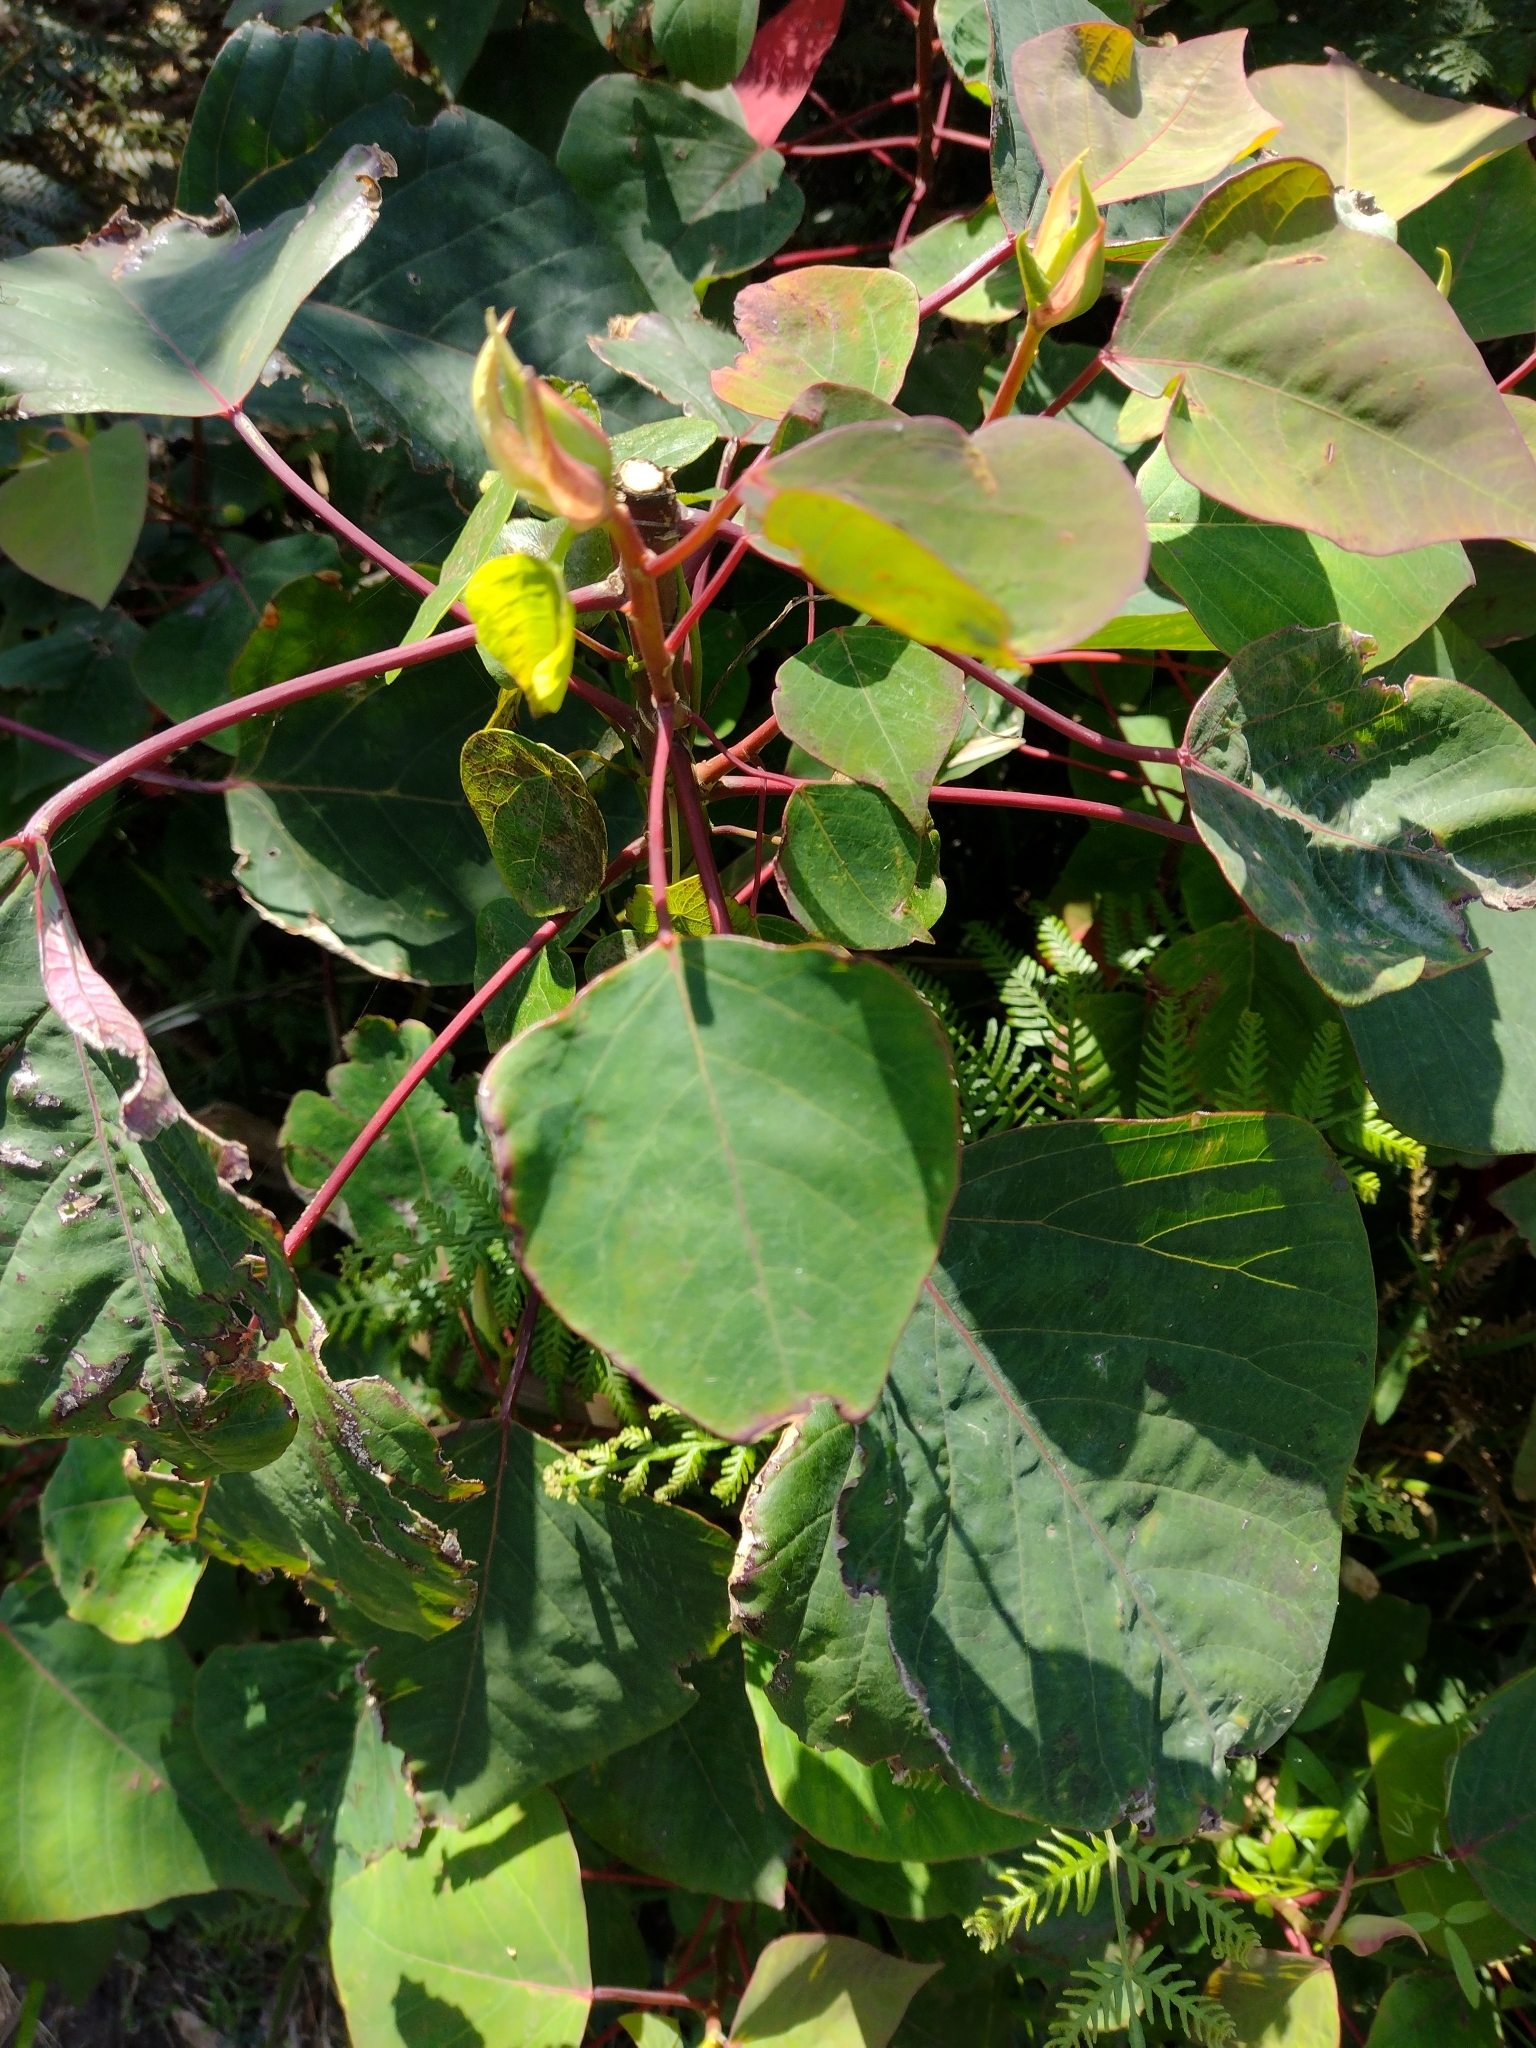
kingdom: Plantae
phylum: Tracheophyta
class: Magnoliopsida
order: Malpighiales
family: Euphorbiaceae
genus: Homalanthus
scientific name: Homalanthus populifolius
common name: Queensland poplar
